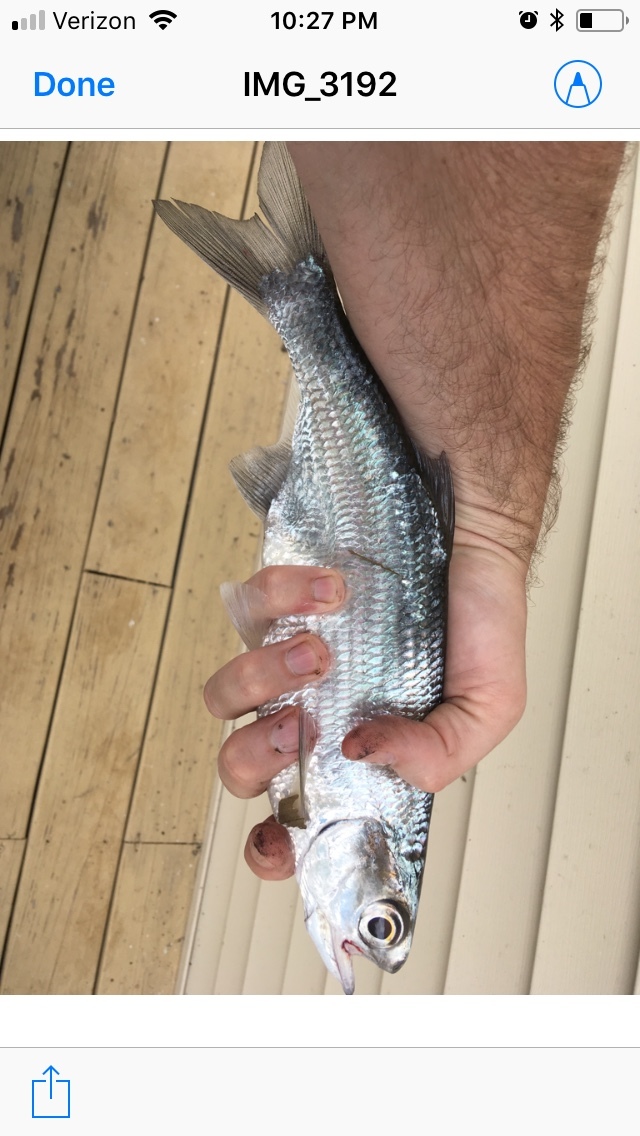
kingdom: Animalia
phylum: Chordata
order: Osteoglossiformes
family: Hiodontidae
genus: Hiodon
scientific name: Hiodon tergisus
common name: Mooneye
